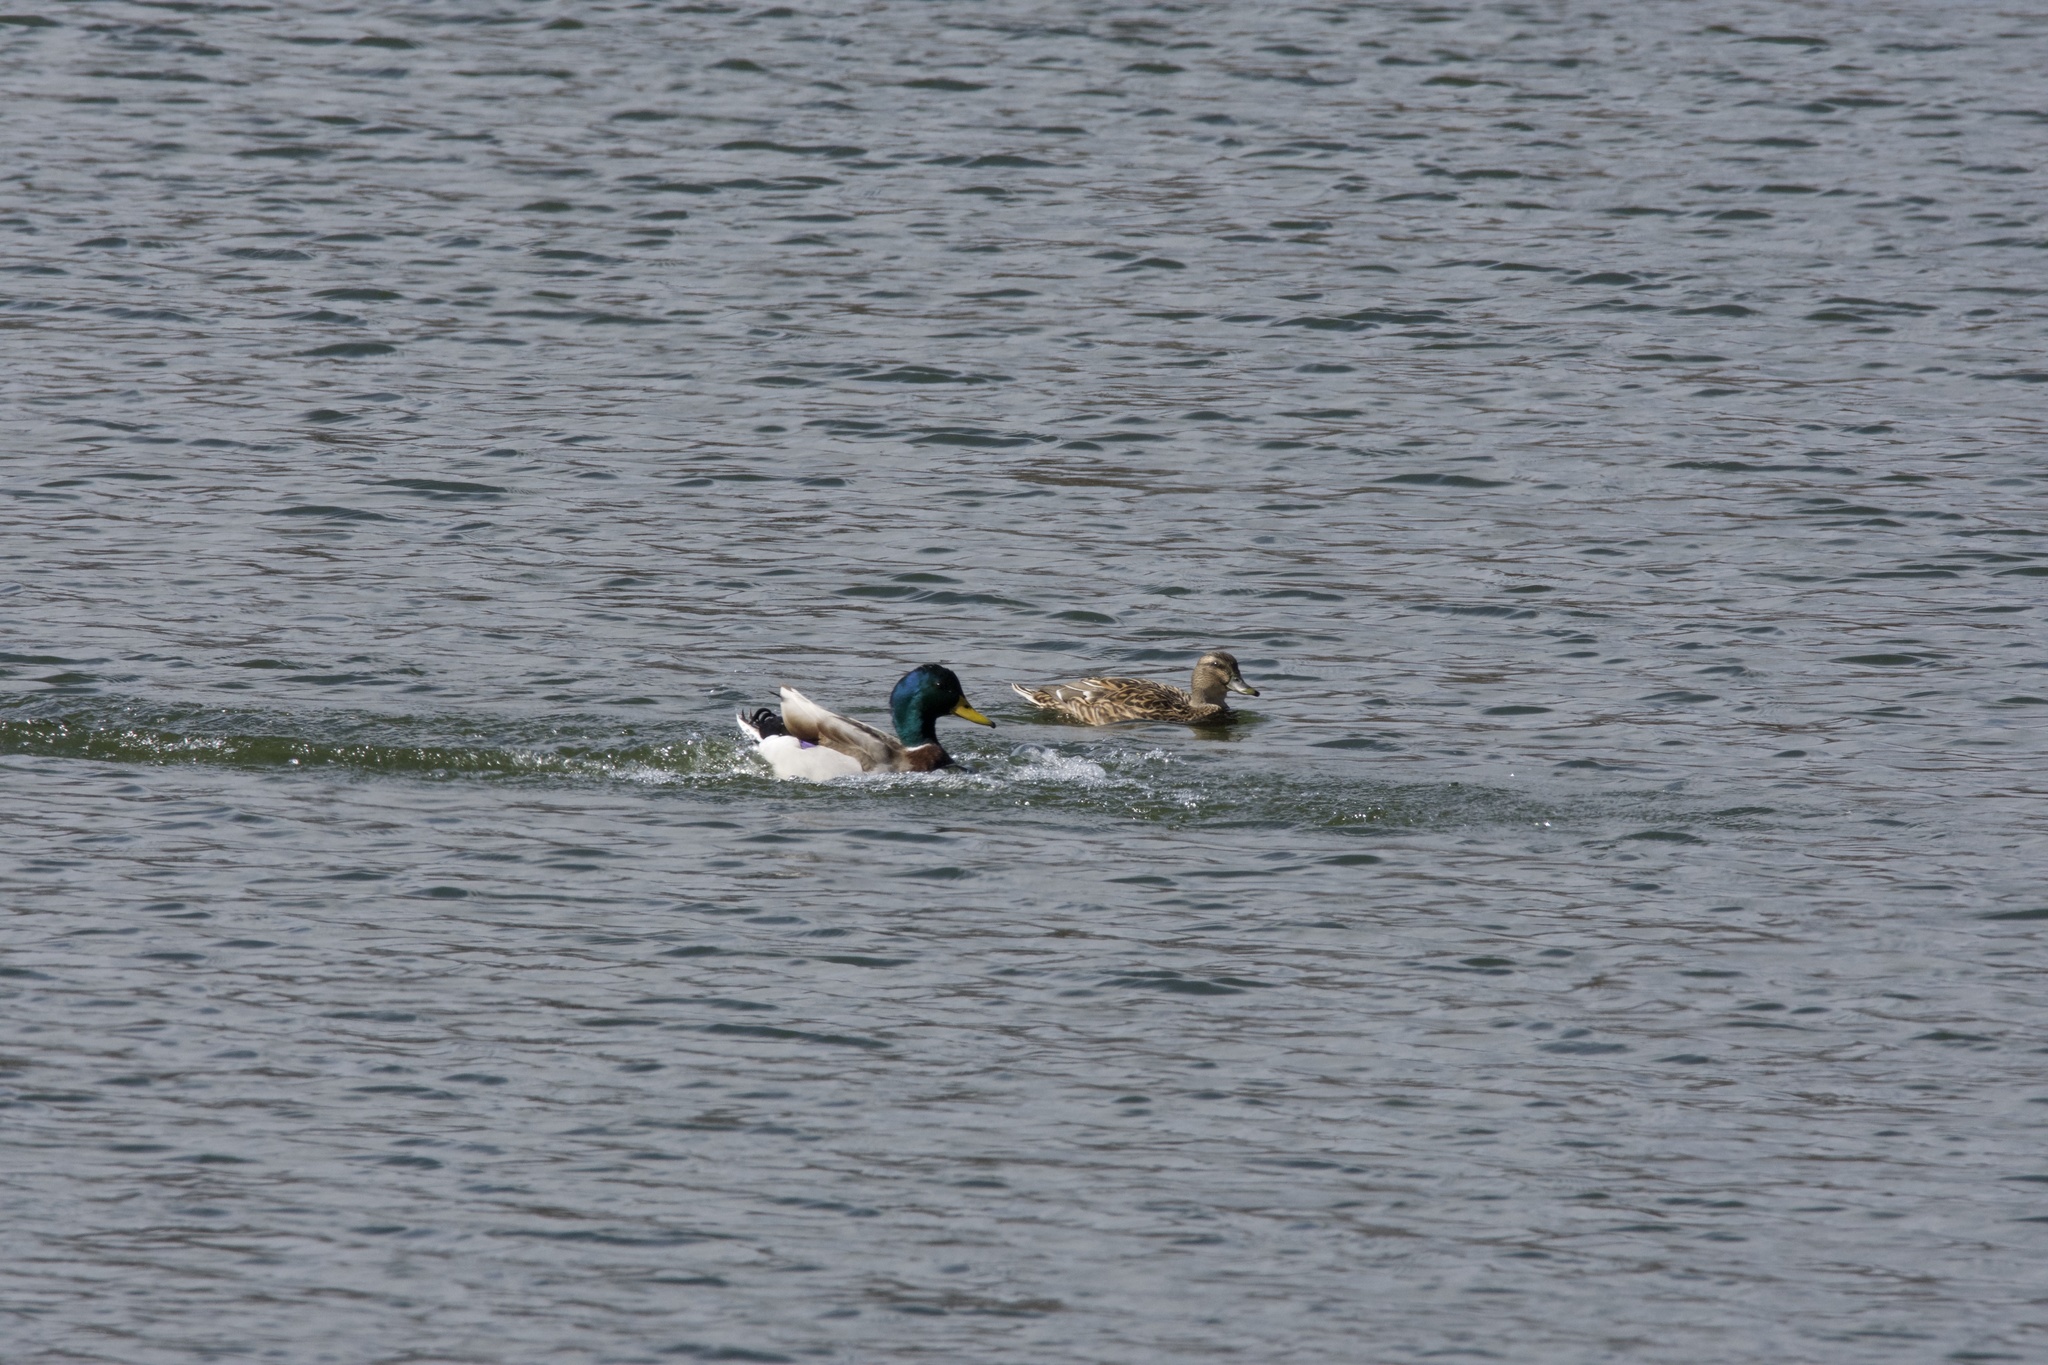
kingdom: Animalia
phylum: Chordata
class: Aves
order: Anseriformes
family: Anatidae
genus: Anas
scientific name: Anas platyrhynchos
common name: Mallard
